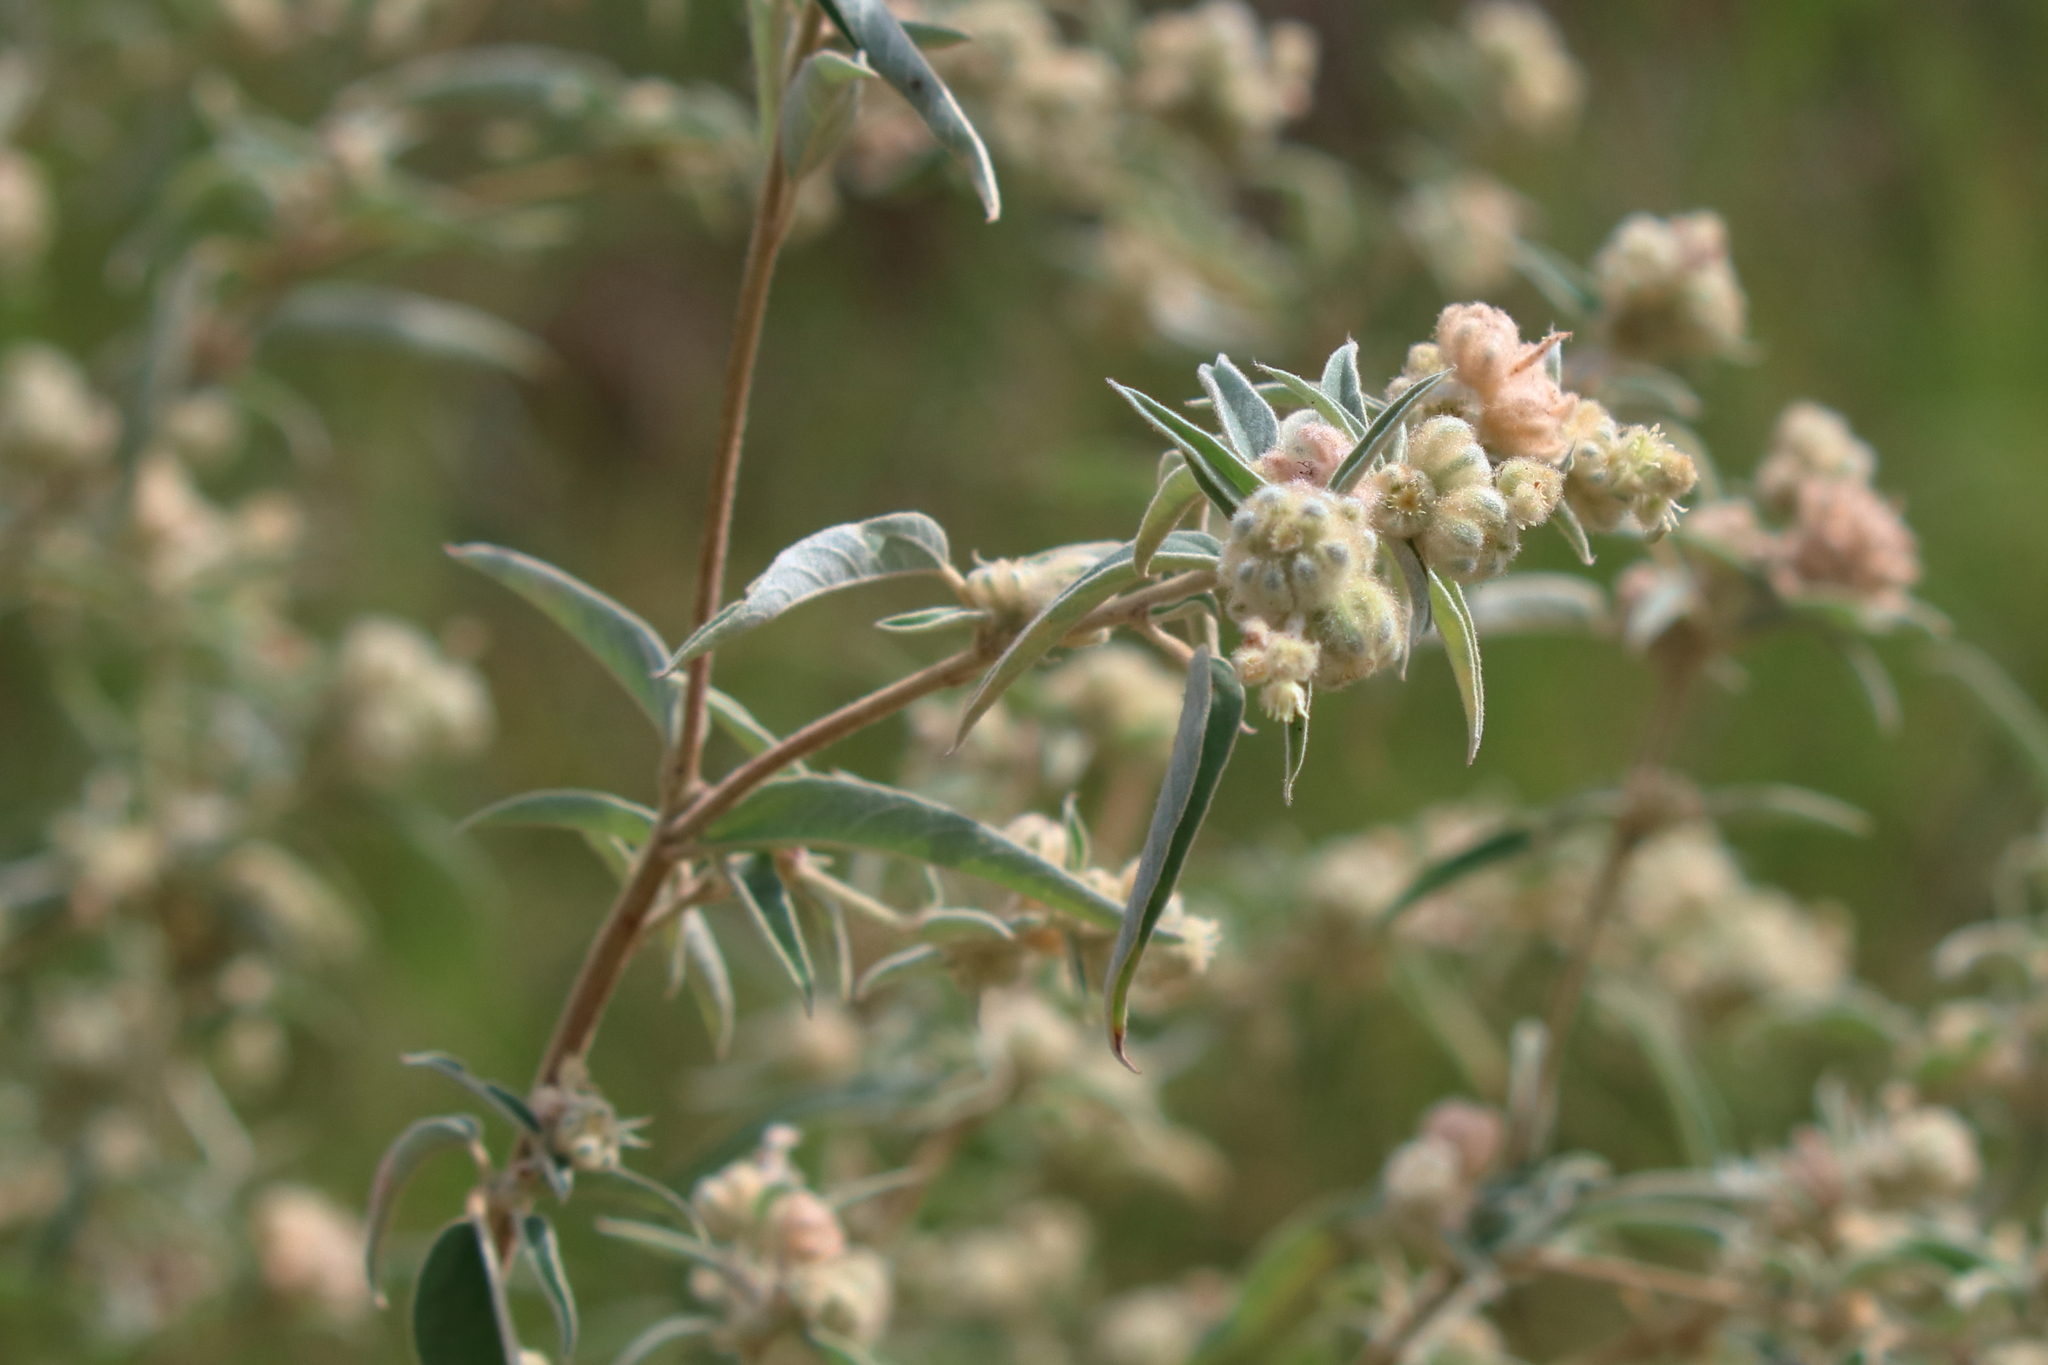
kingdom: Plantae
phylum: Tracheophyta
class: Magnoliopsida
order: Malpighiales
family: Euphorbiaceae
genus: Croton
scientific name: Croton lindheimeri
